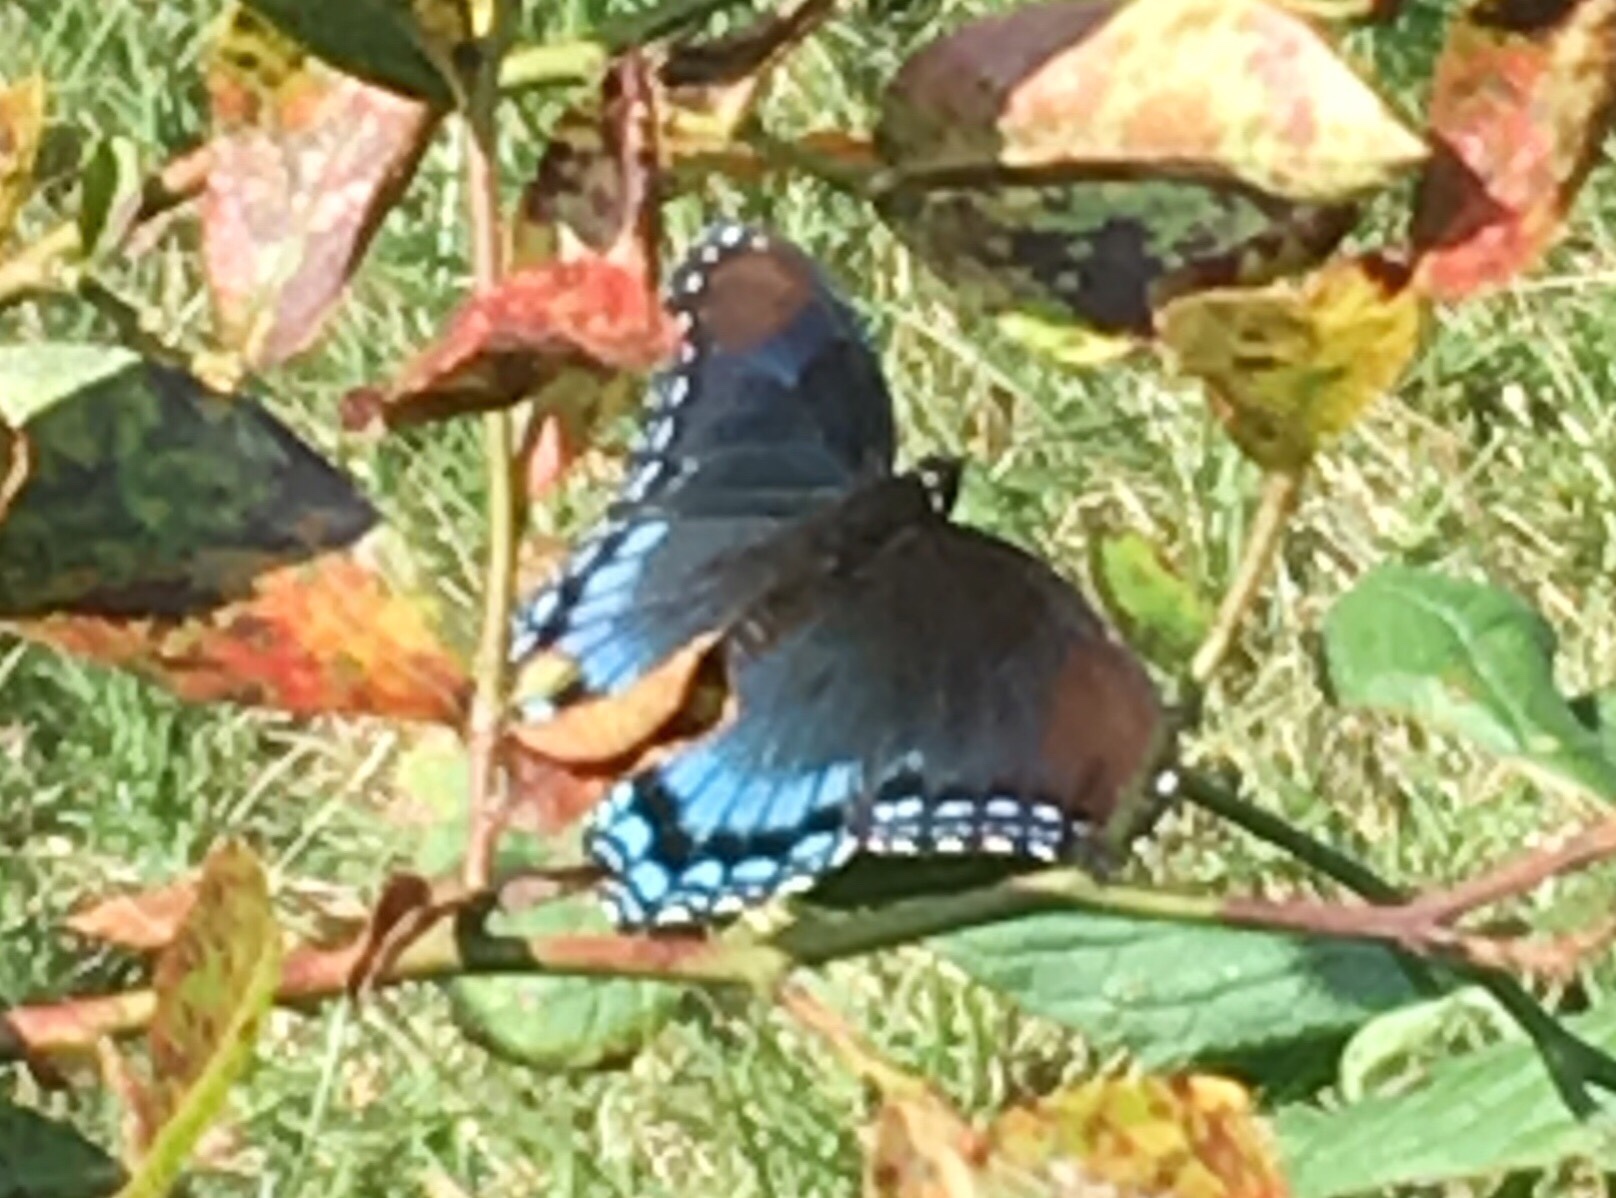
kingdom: Animalia
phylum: Arthropoda
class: Insecta
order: Lepidoptera
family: Nymphalidae
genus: Limenitis
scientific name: Limenitis astyanax
